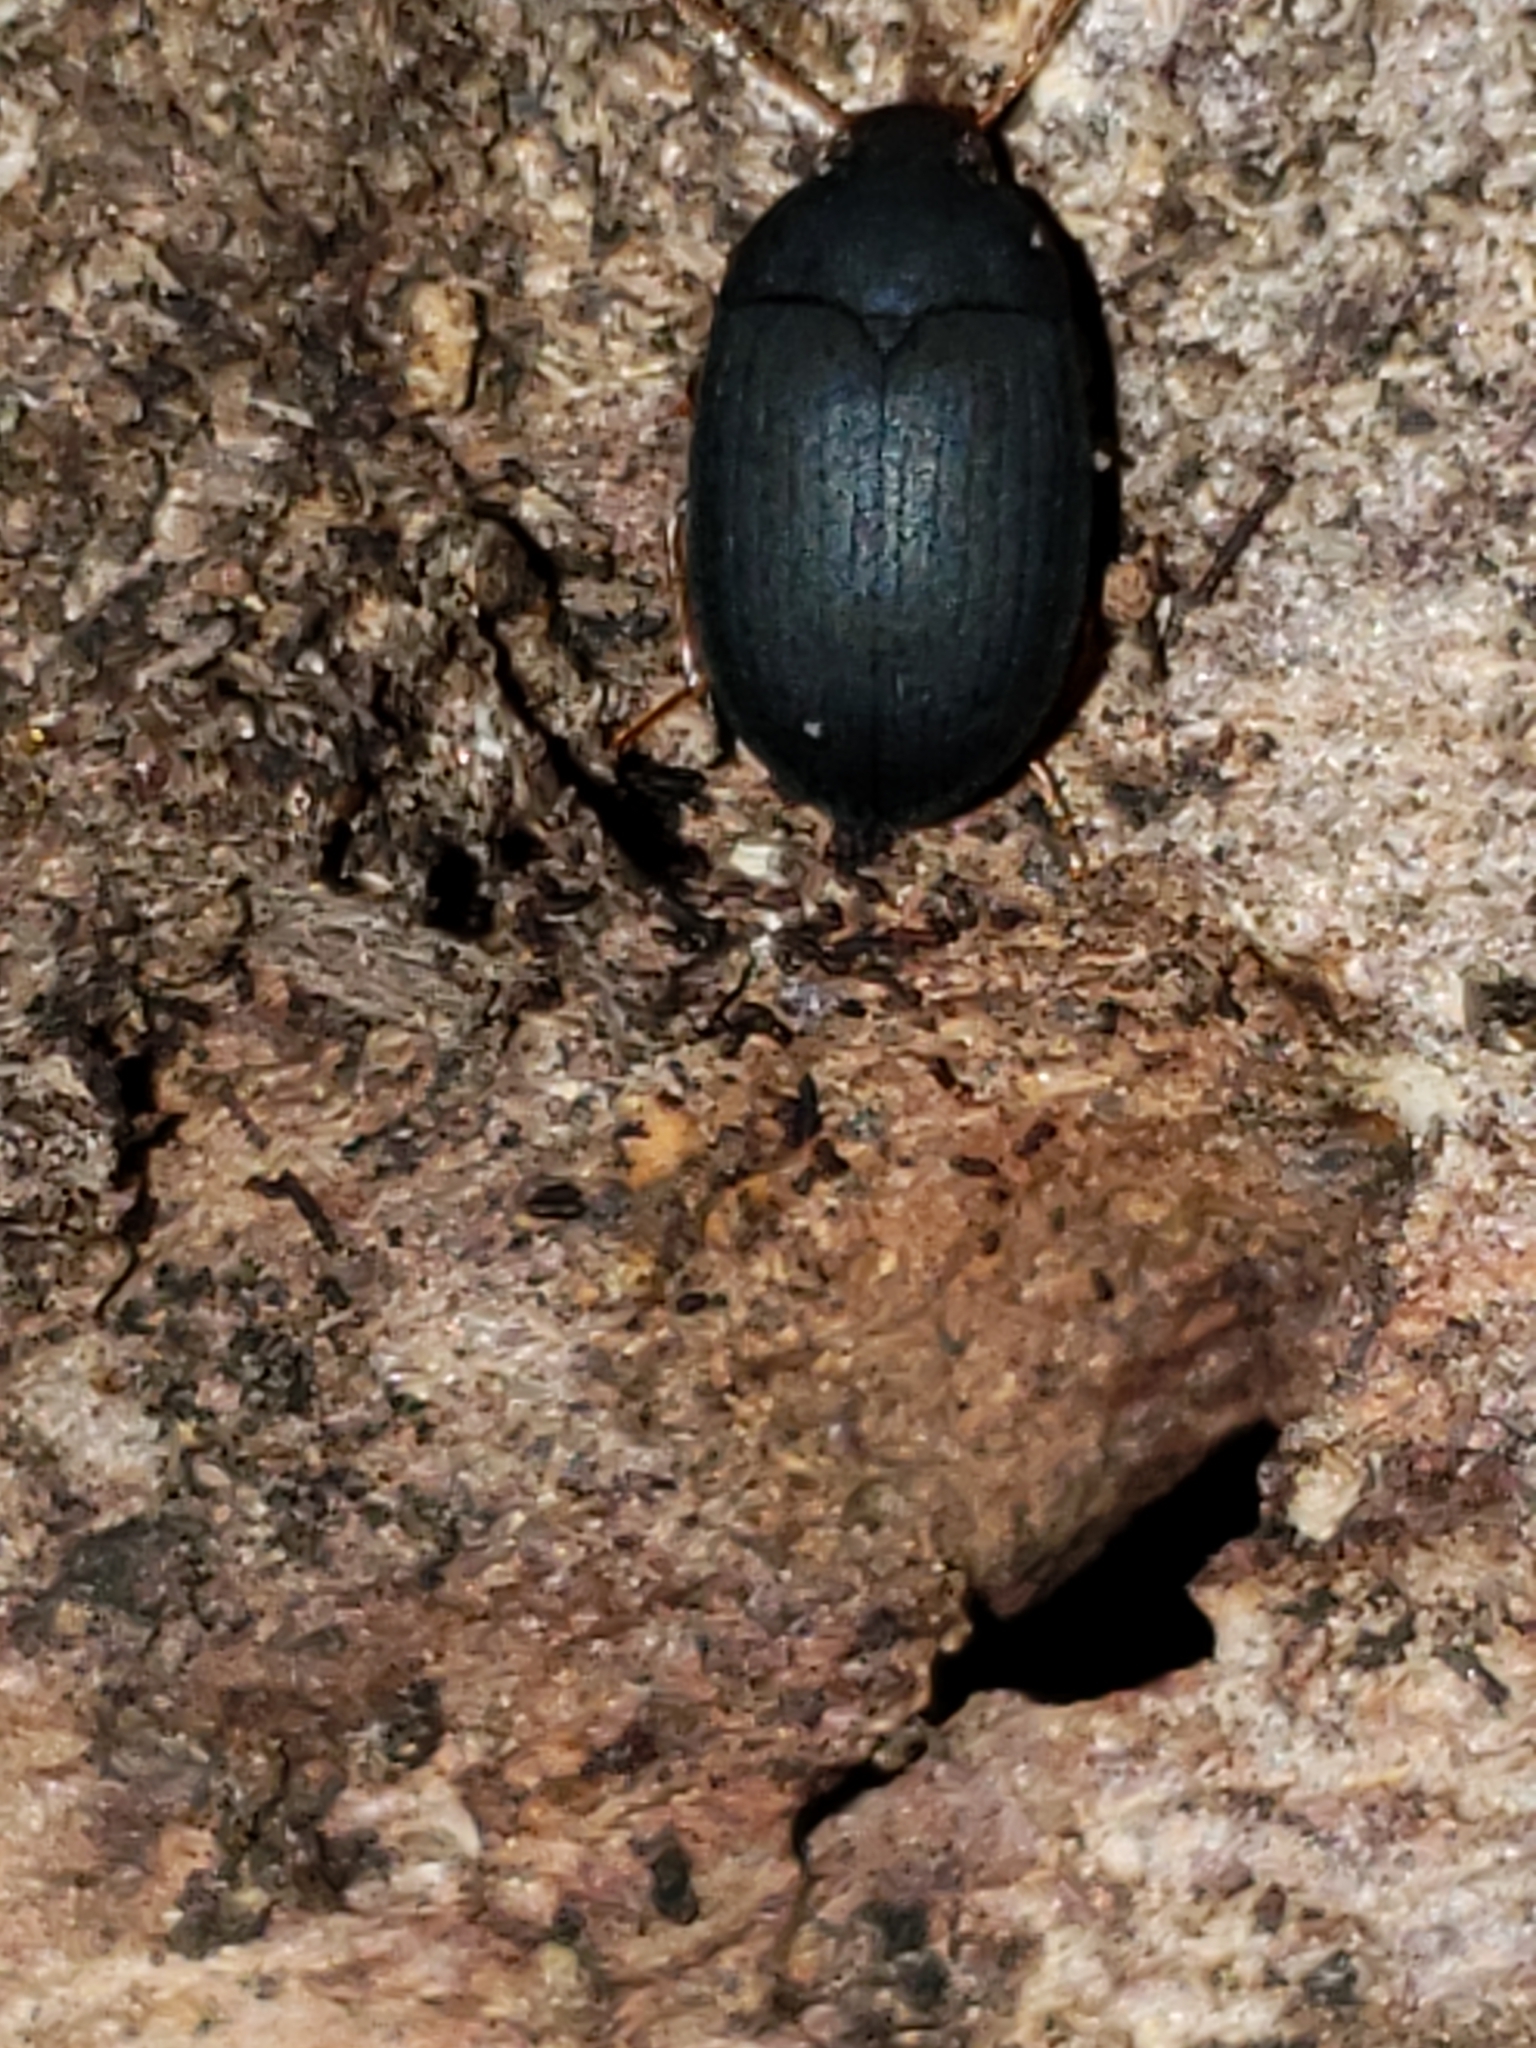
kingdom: Animalia
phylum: Arthropoda
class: Insecta
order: Coleoptera
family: Tenebrionidae
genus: Platydema
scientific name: Platydema ruficornis
